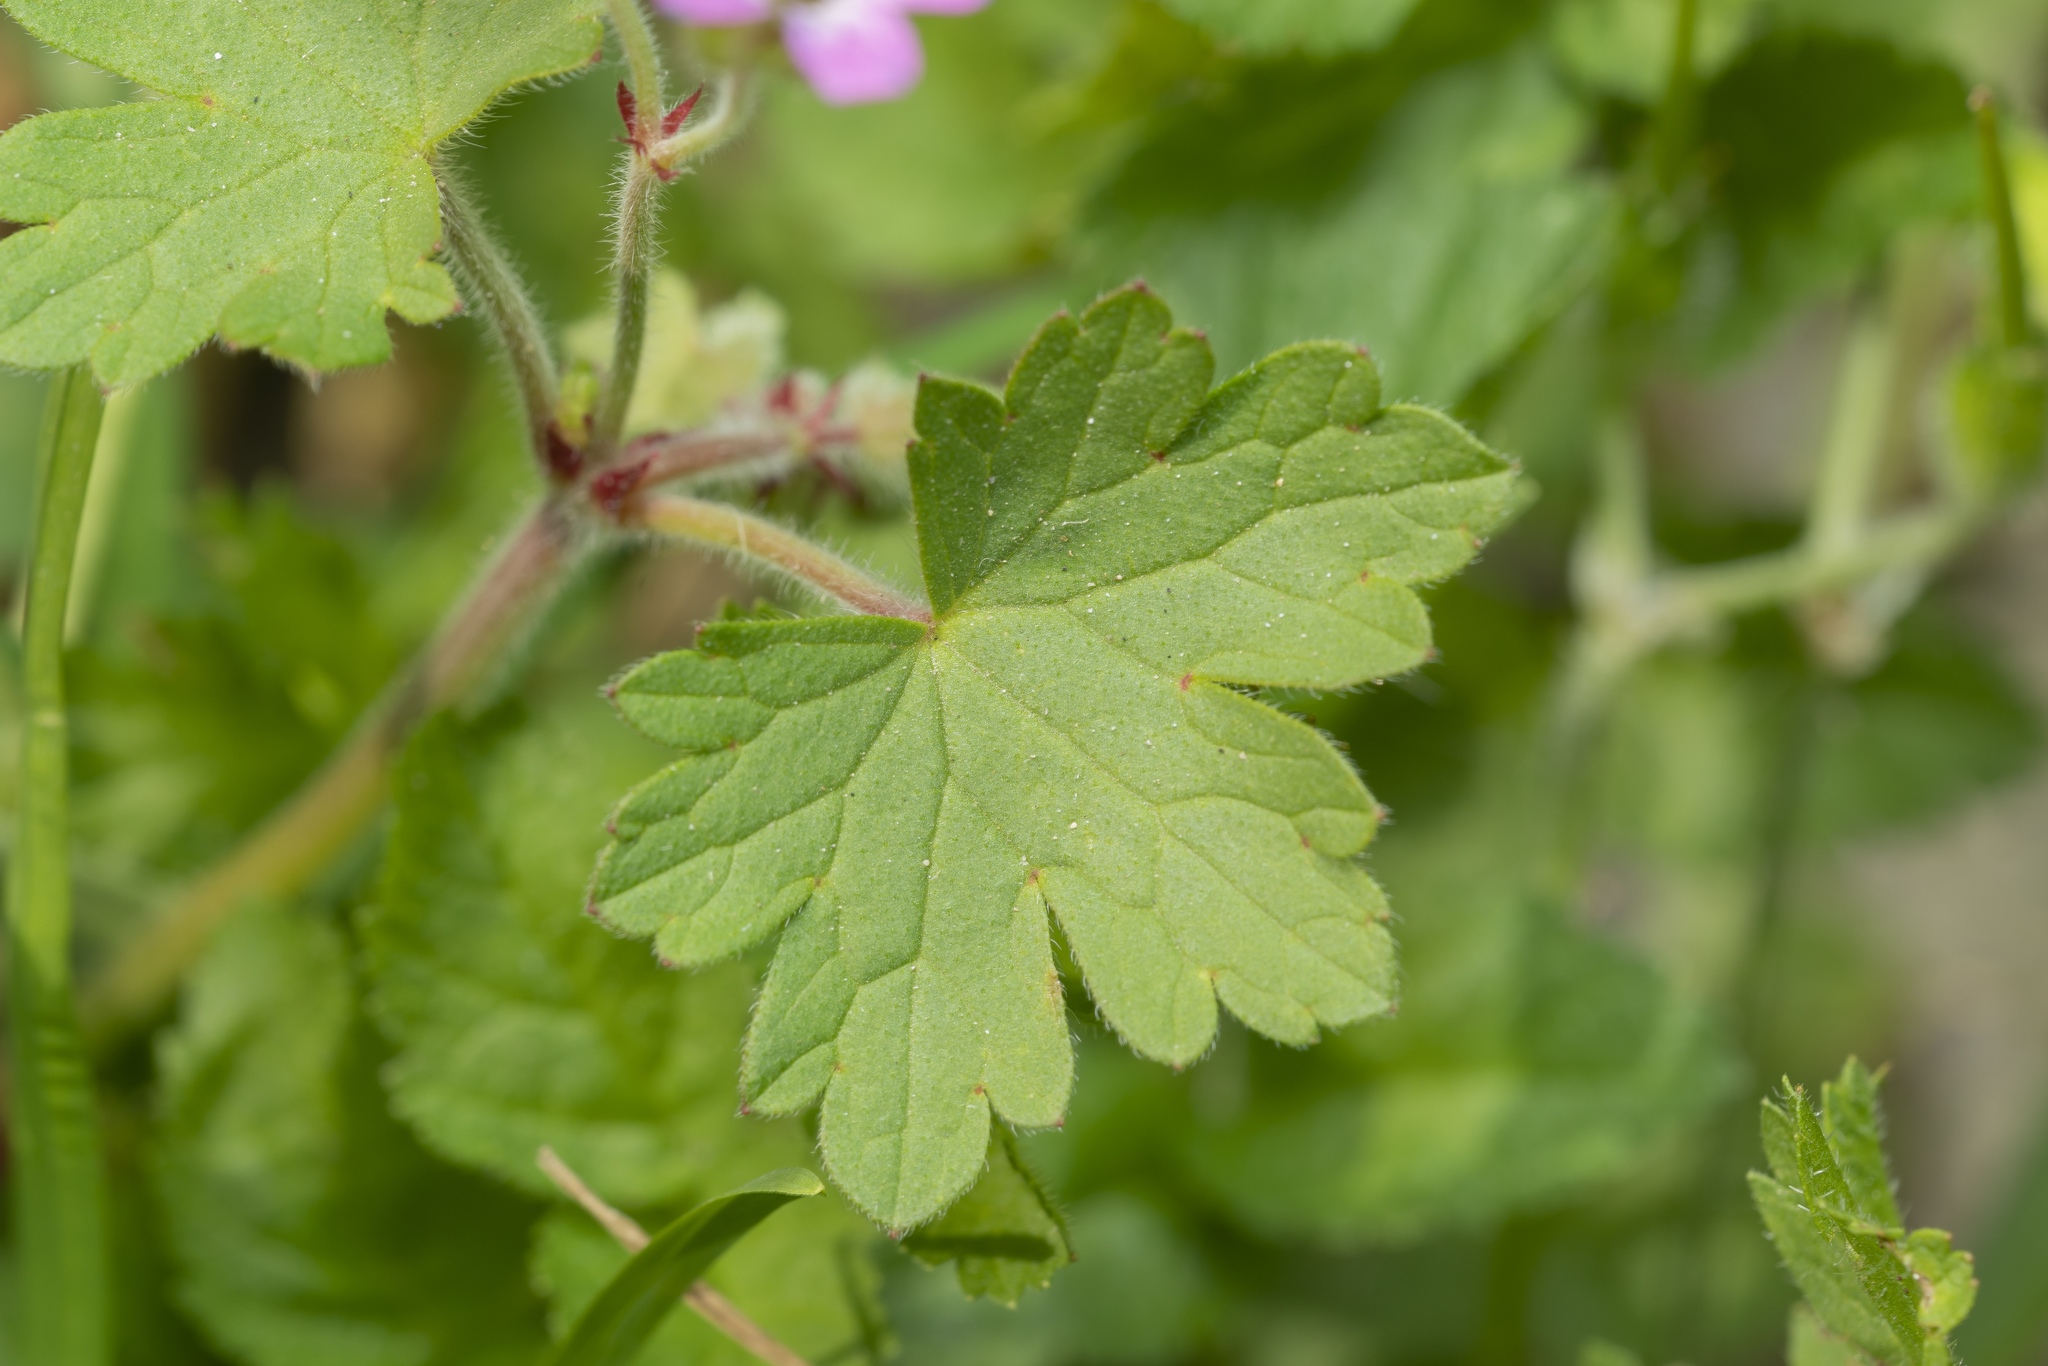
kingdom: Plantae
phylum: Tracheophyta
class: Magnoliopsida
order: Geraniales
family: Geraniaceae
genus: Geranium
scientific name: Geranium rotundifolium
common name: Round-leaved crane's-bill
